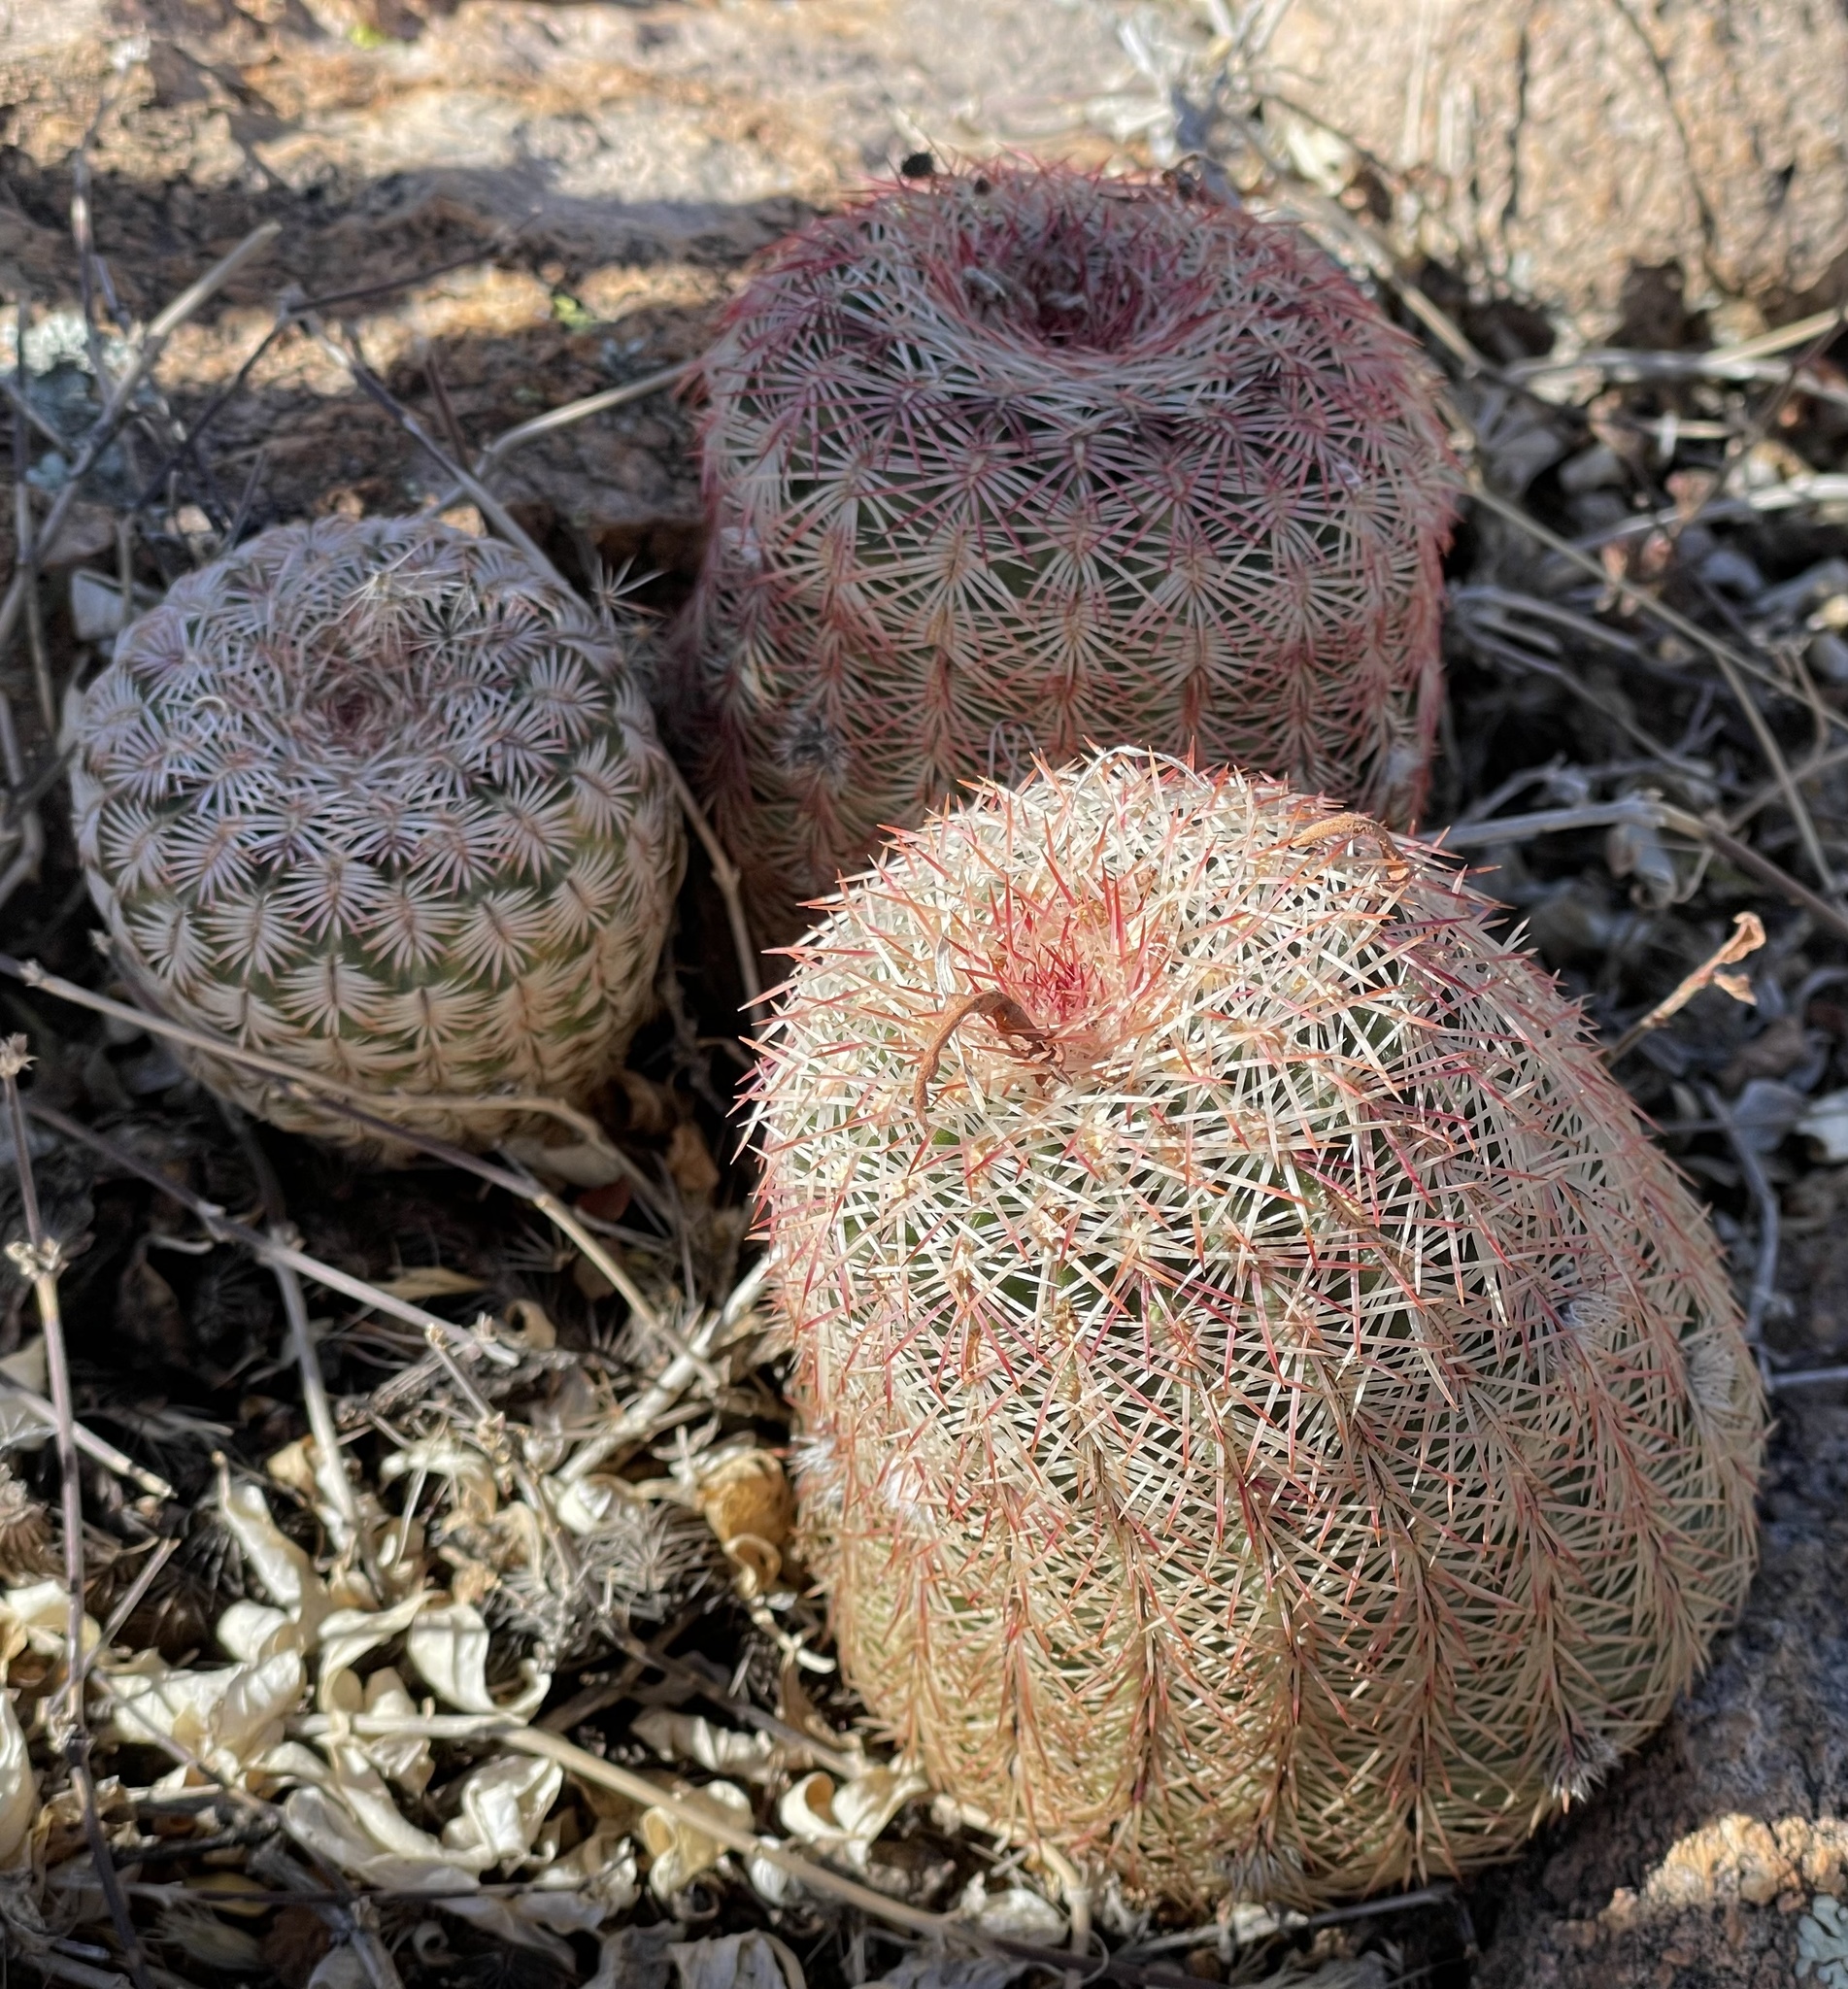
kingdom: Plantae
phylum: Tracheophyta
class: Magnoliopsida
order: Caryophyllales
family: Cactaceae
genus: Echinocereus
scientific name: Echinocereus rigidissimus
